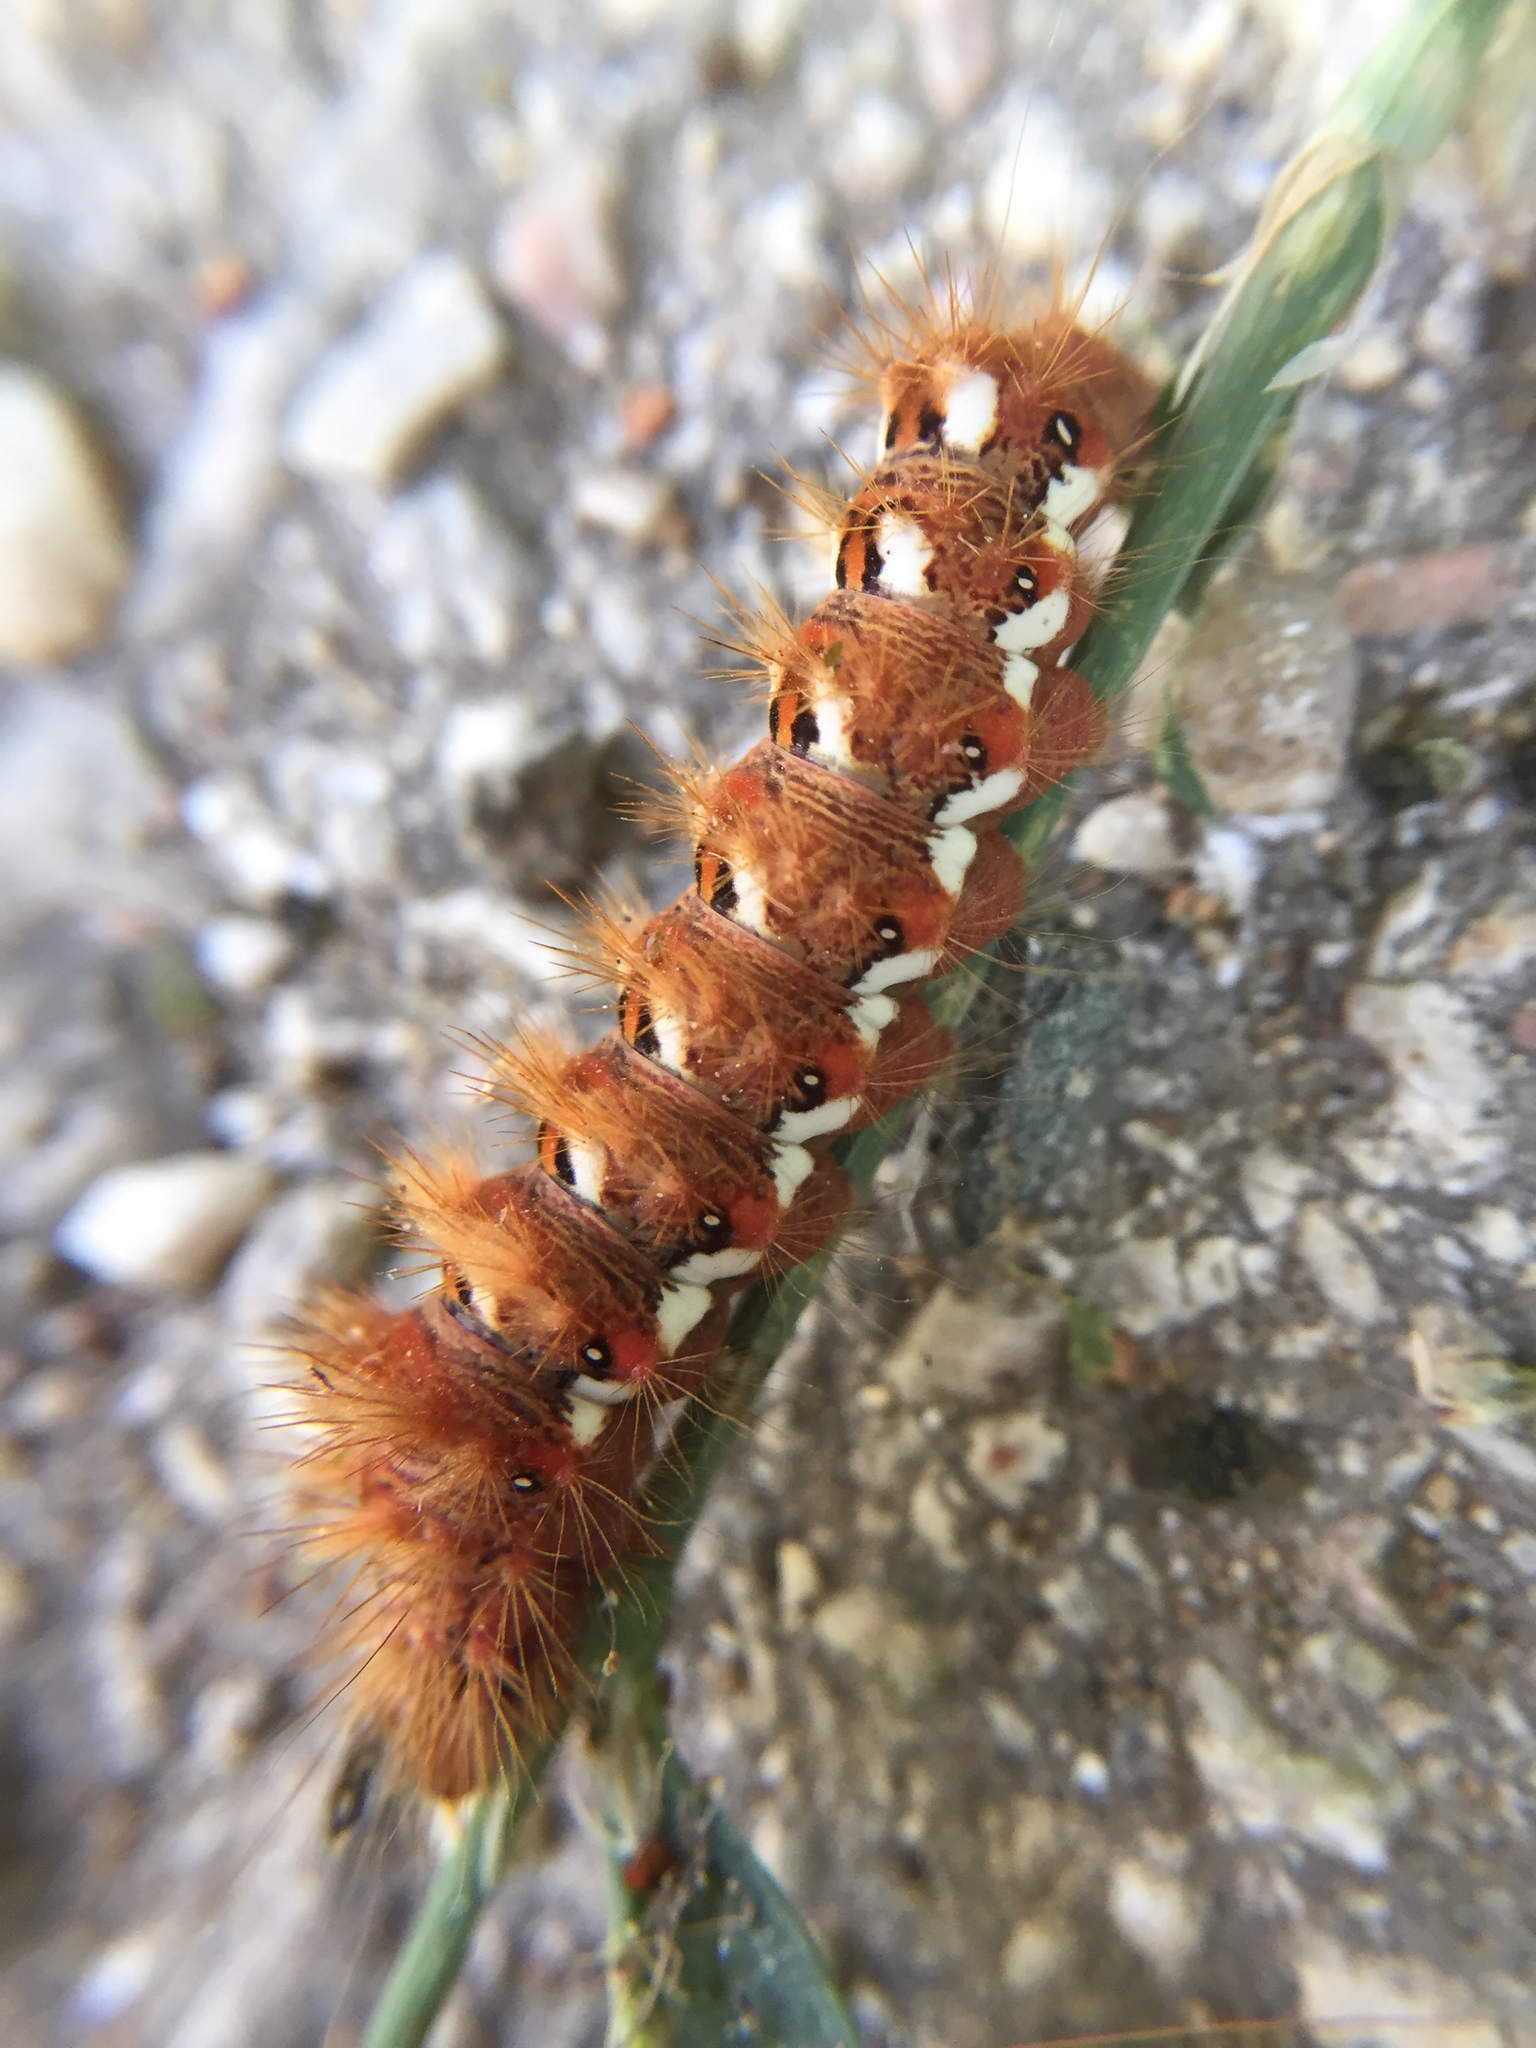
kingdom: Animalia
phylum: Arthropoda
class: Insecta
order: Lepidoptera
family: Noctuidae
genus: Acronicta
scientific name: Acronicta rumicis
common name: Knot grass
